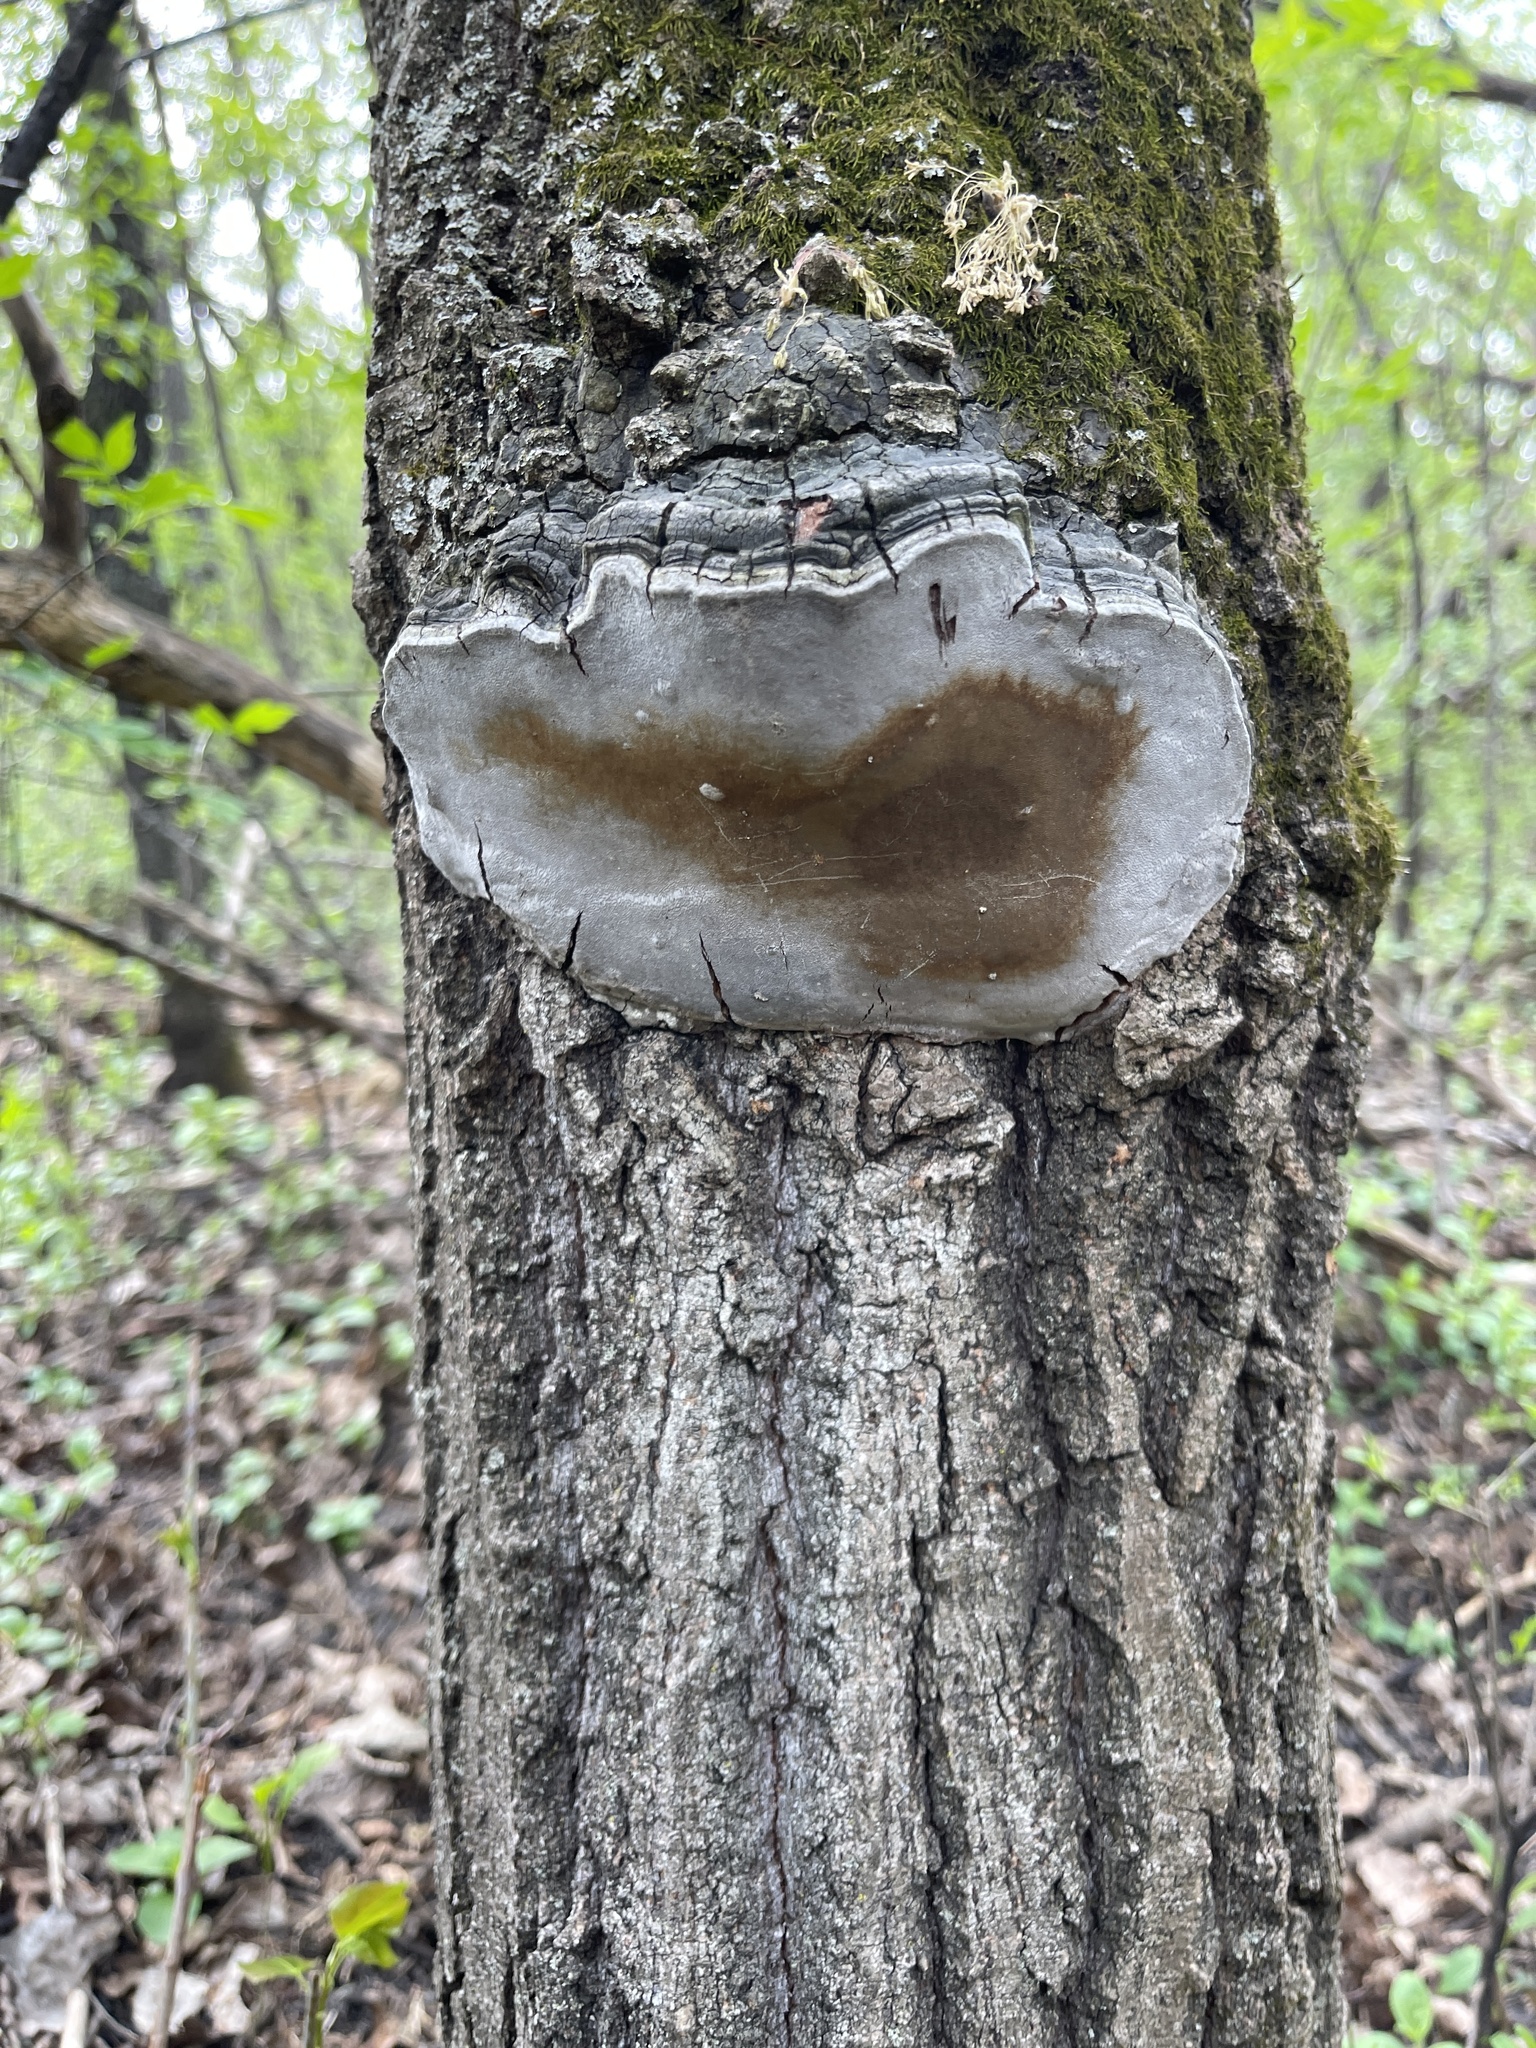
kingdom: Fungi
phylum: Basidiomycota
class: Agaricomycetes
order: Hymenochaetales
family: Hymenochaetaceae
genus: Phellinus
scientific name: Phellinus tremulae
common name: Aspen bracket
